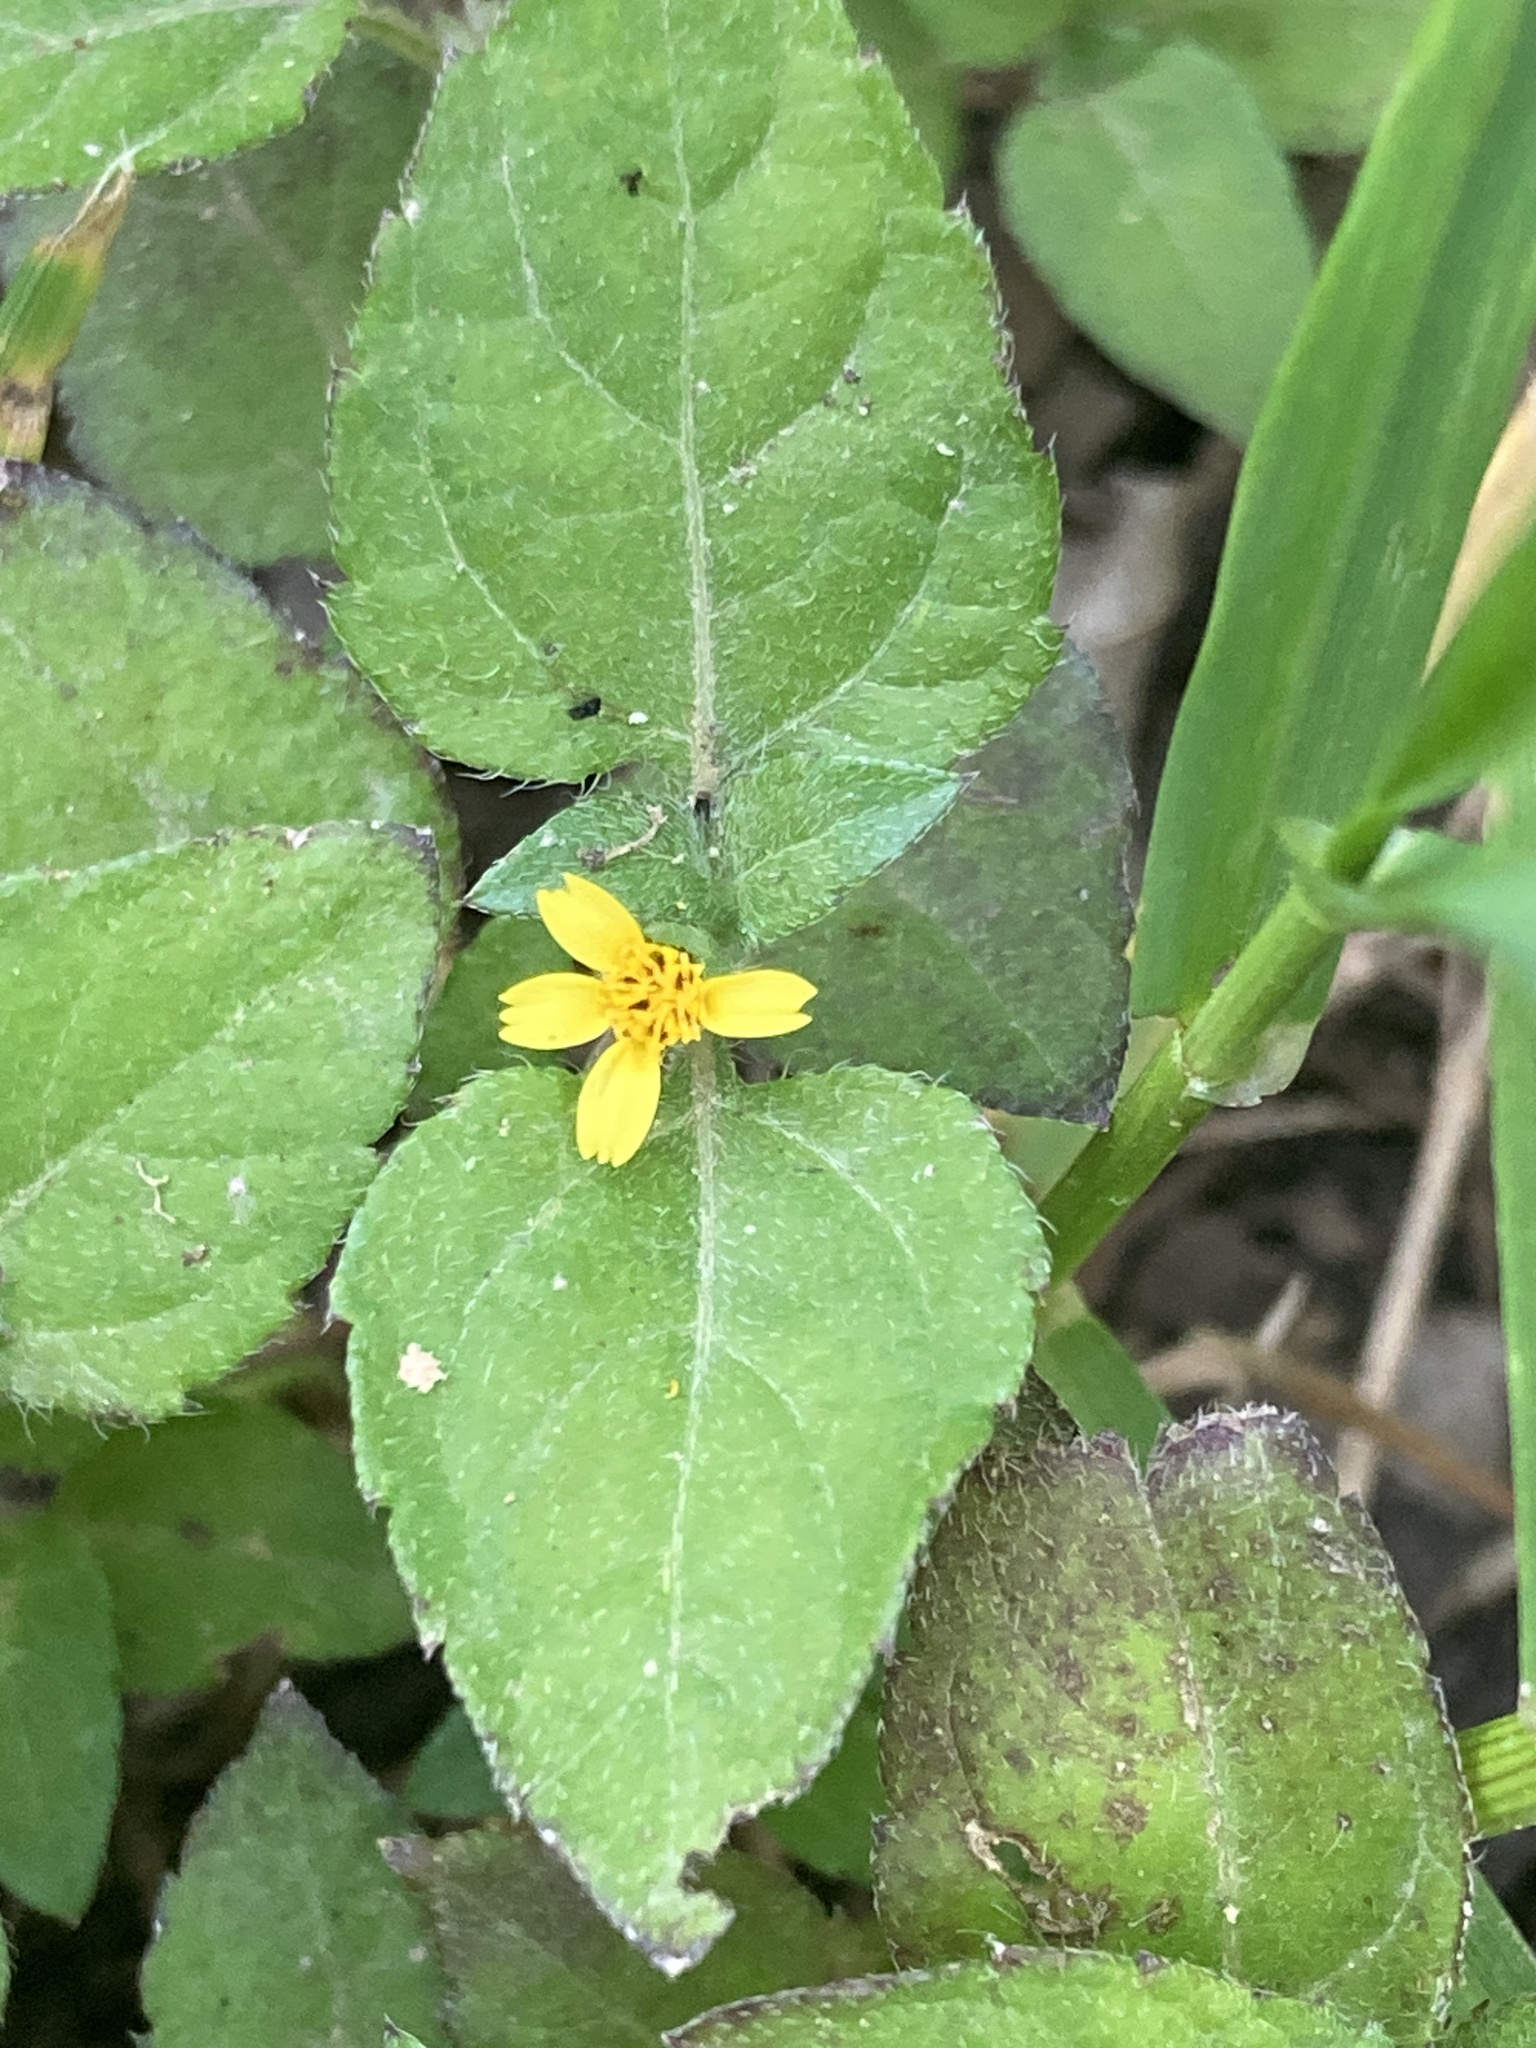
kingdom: Plantae
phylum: Tracheophyta
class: Magnoliopsida
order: Asterales
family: Asteraceae
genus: Calyptocarpus
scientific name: Calyptocarpus vialis
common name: Straggler daisy
